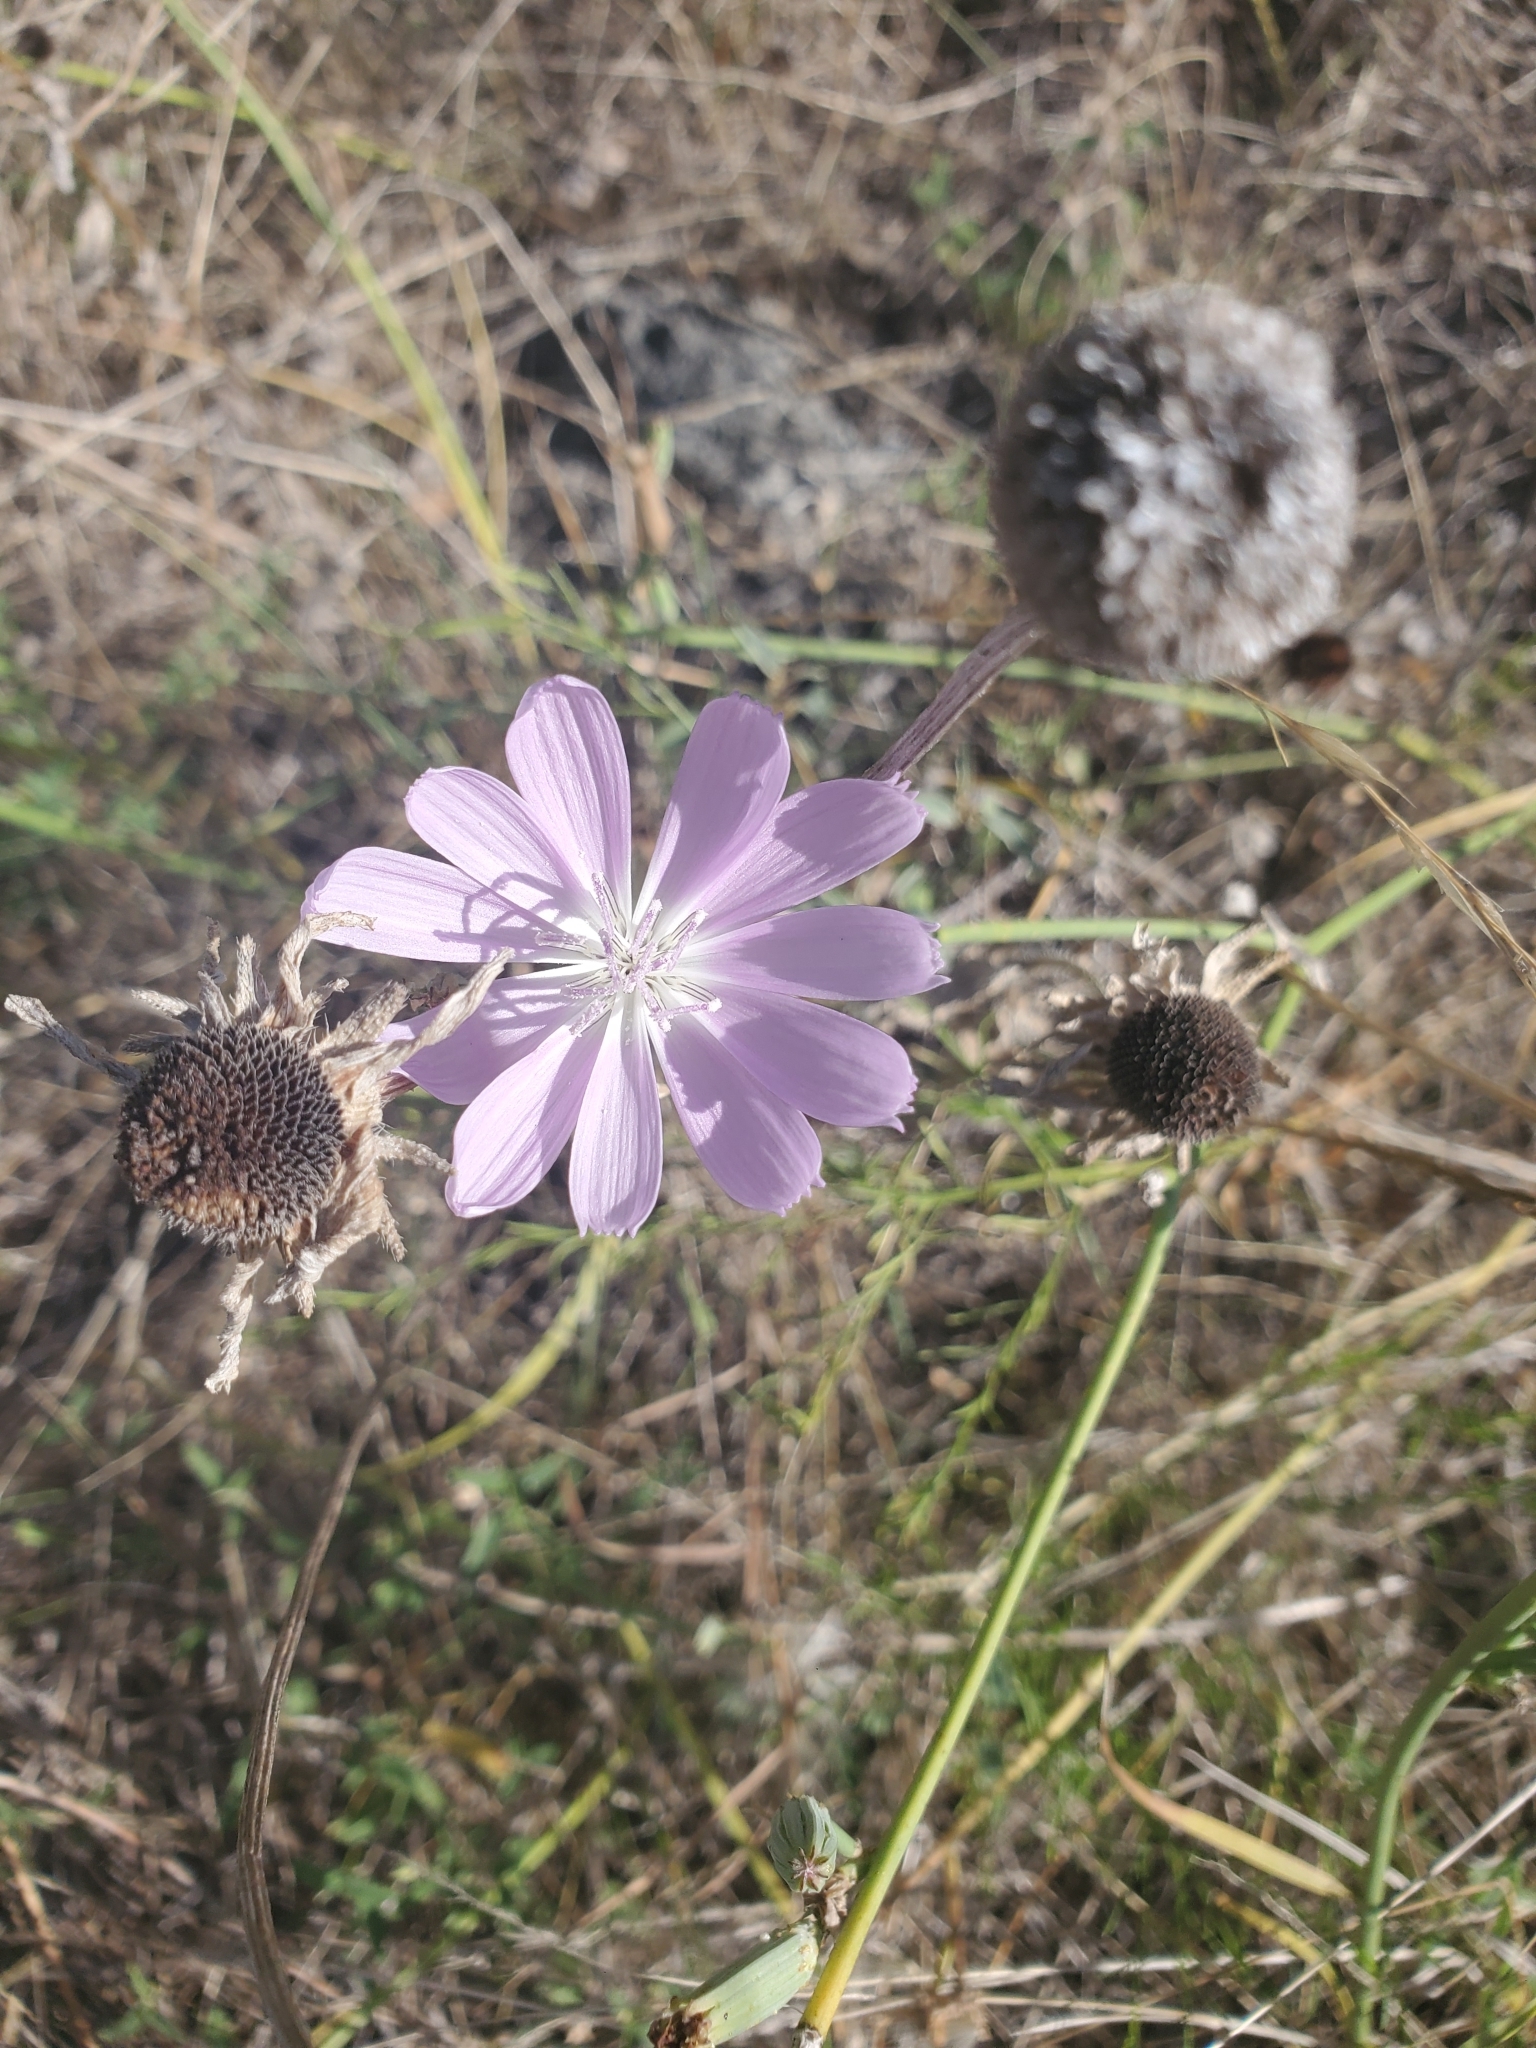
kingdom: Plantae
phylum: Tracheophyta
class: Magnoliopsida
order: Asterales
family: Asteraceae
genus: Lygodesmia
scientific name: Lygodesmia texana
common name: Texas skeleton-plant
